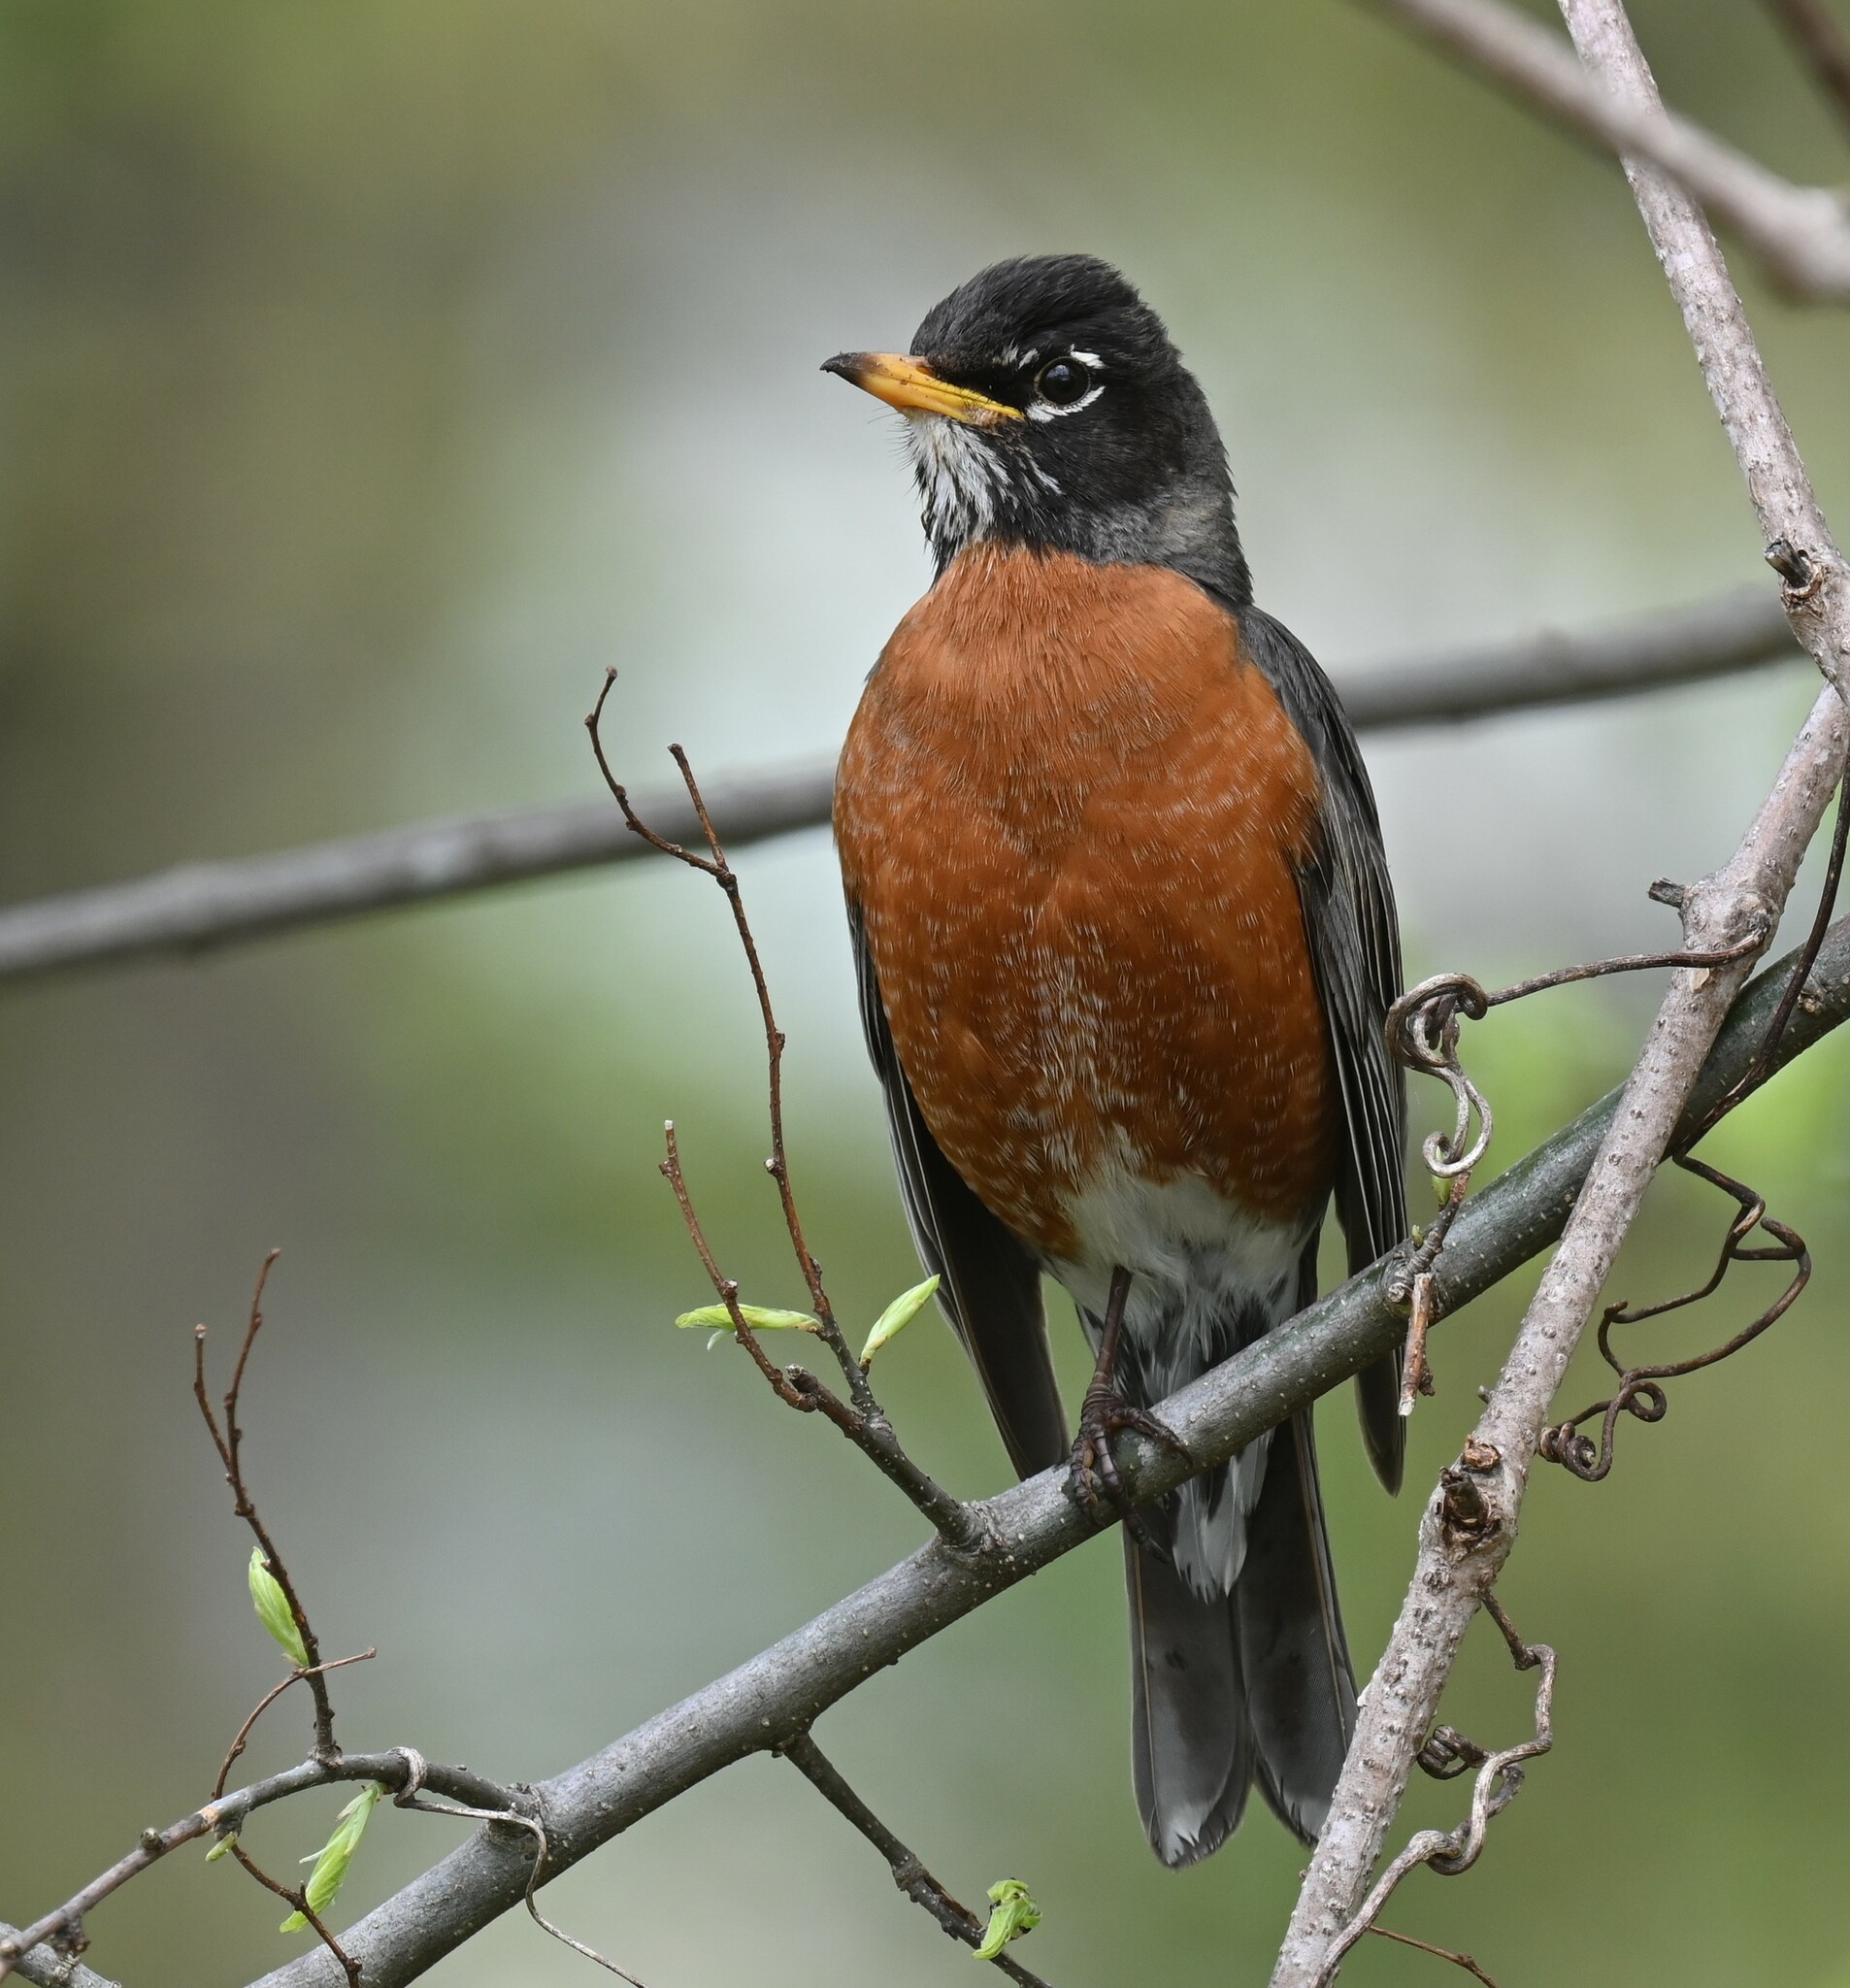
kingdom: Animalia
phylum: Chordata
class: Aves
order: Passeriformes
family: Turdidae
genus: Turdus
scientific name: Turdus migratorius
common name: American robin
